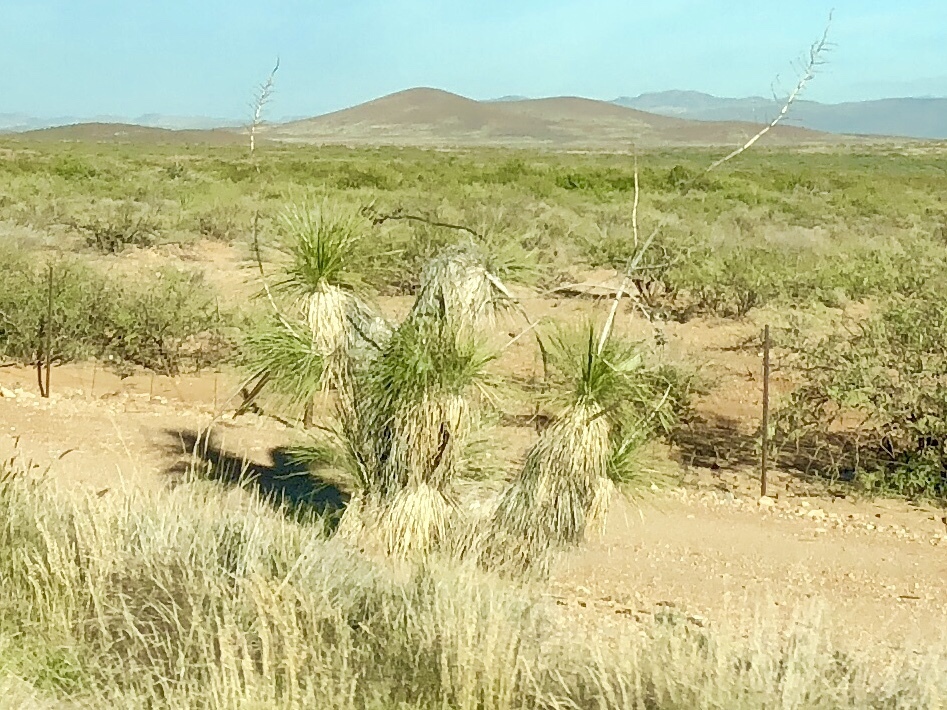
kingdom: Plantae
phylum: Tracheophyta
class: Liliopsida
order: Asparagales
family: Asparagaceae
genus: Yucca
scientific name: Yucca elata
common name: Palmella
